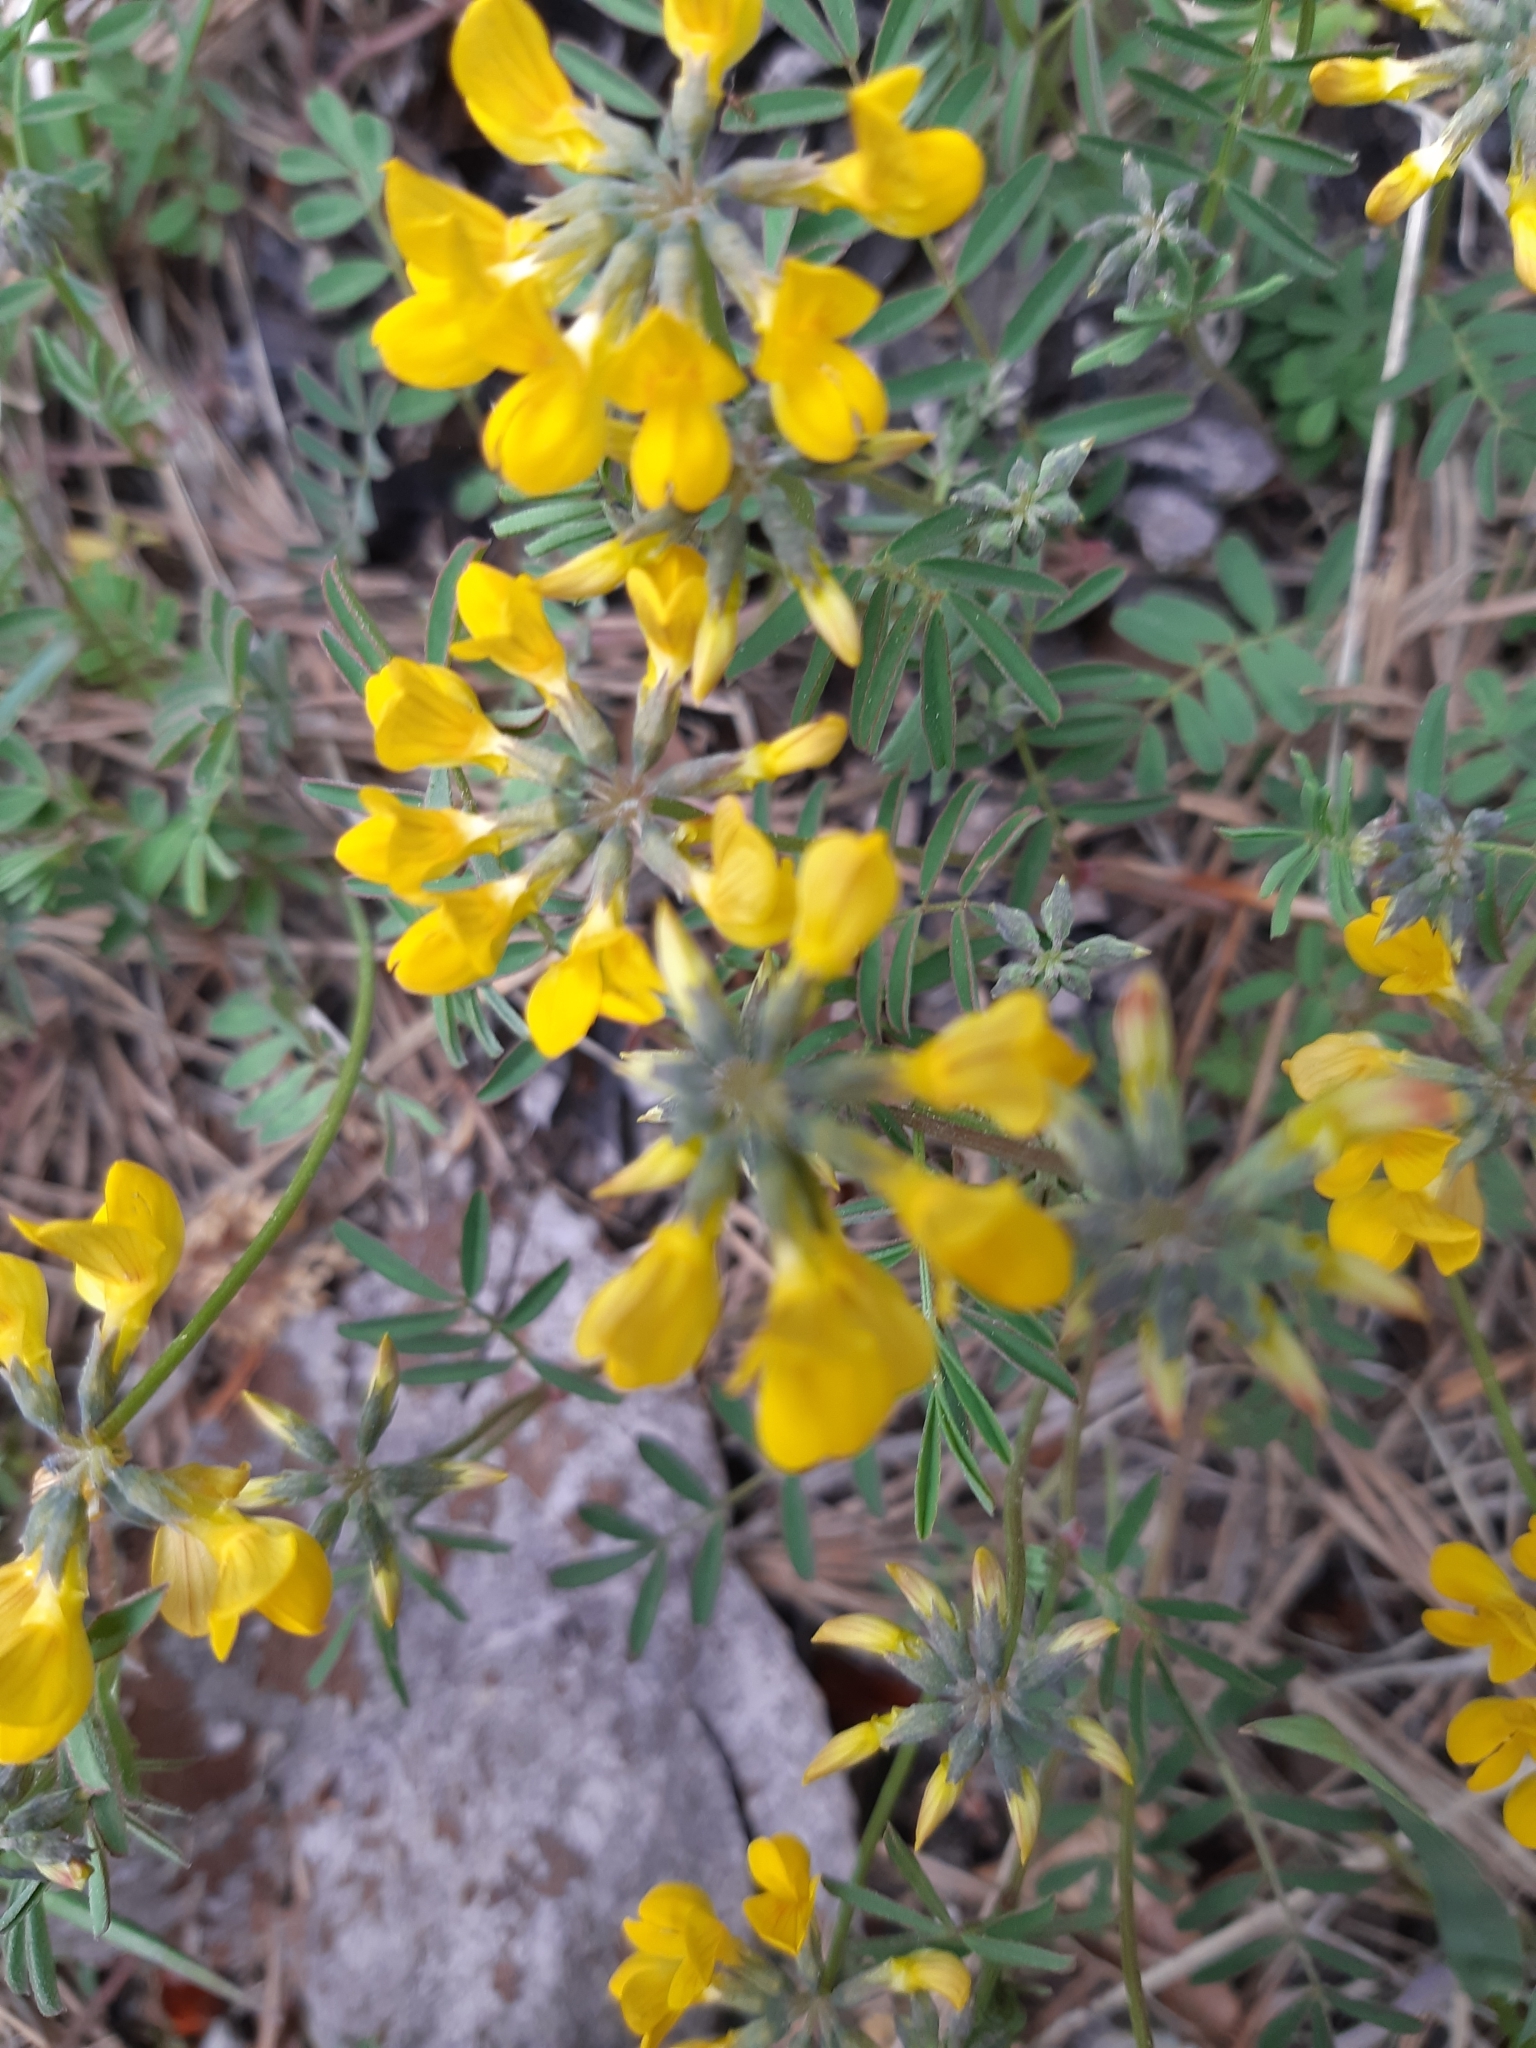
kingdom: Plantae
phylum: Tracheophyta
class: Magnoliopsida
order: Fabales
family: Fabaceae
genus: Hippocrepis
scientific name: Hippocrepis comosa
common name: Horseshoe vetch
